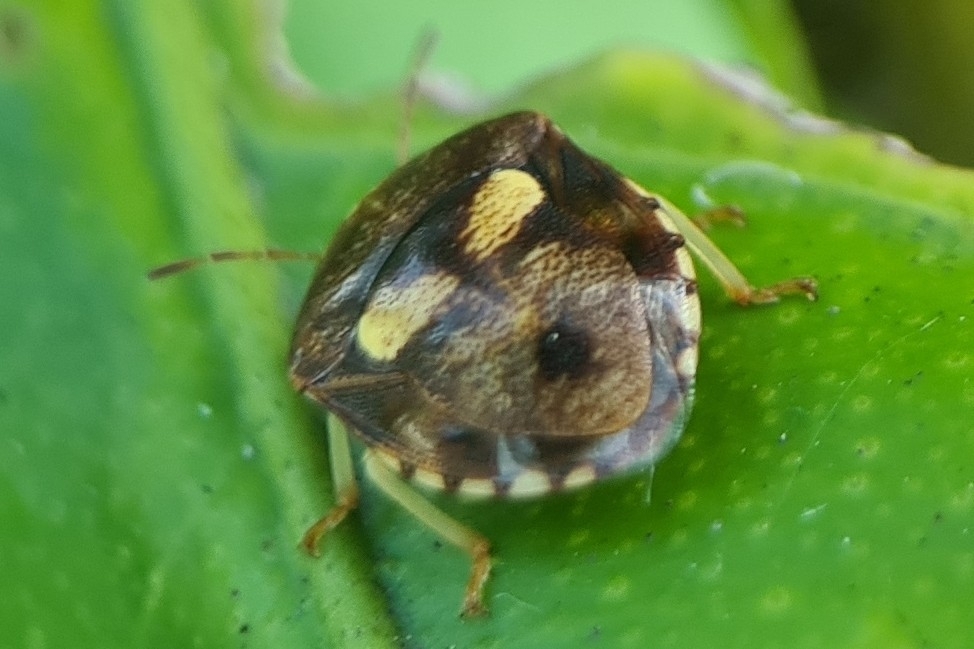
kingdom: Animalia
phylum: Arthropoda
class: Insecta
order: Hemiptera
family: Pentatomidae
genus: Aspideurus
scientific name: Aspideurus
